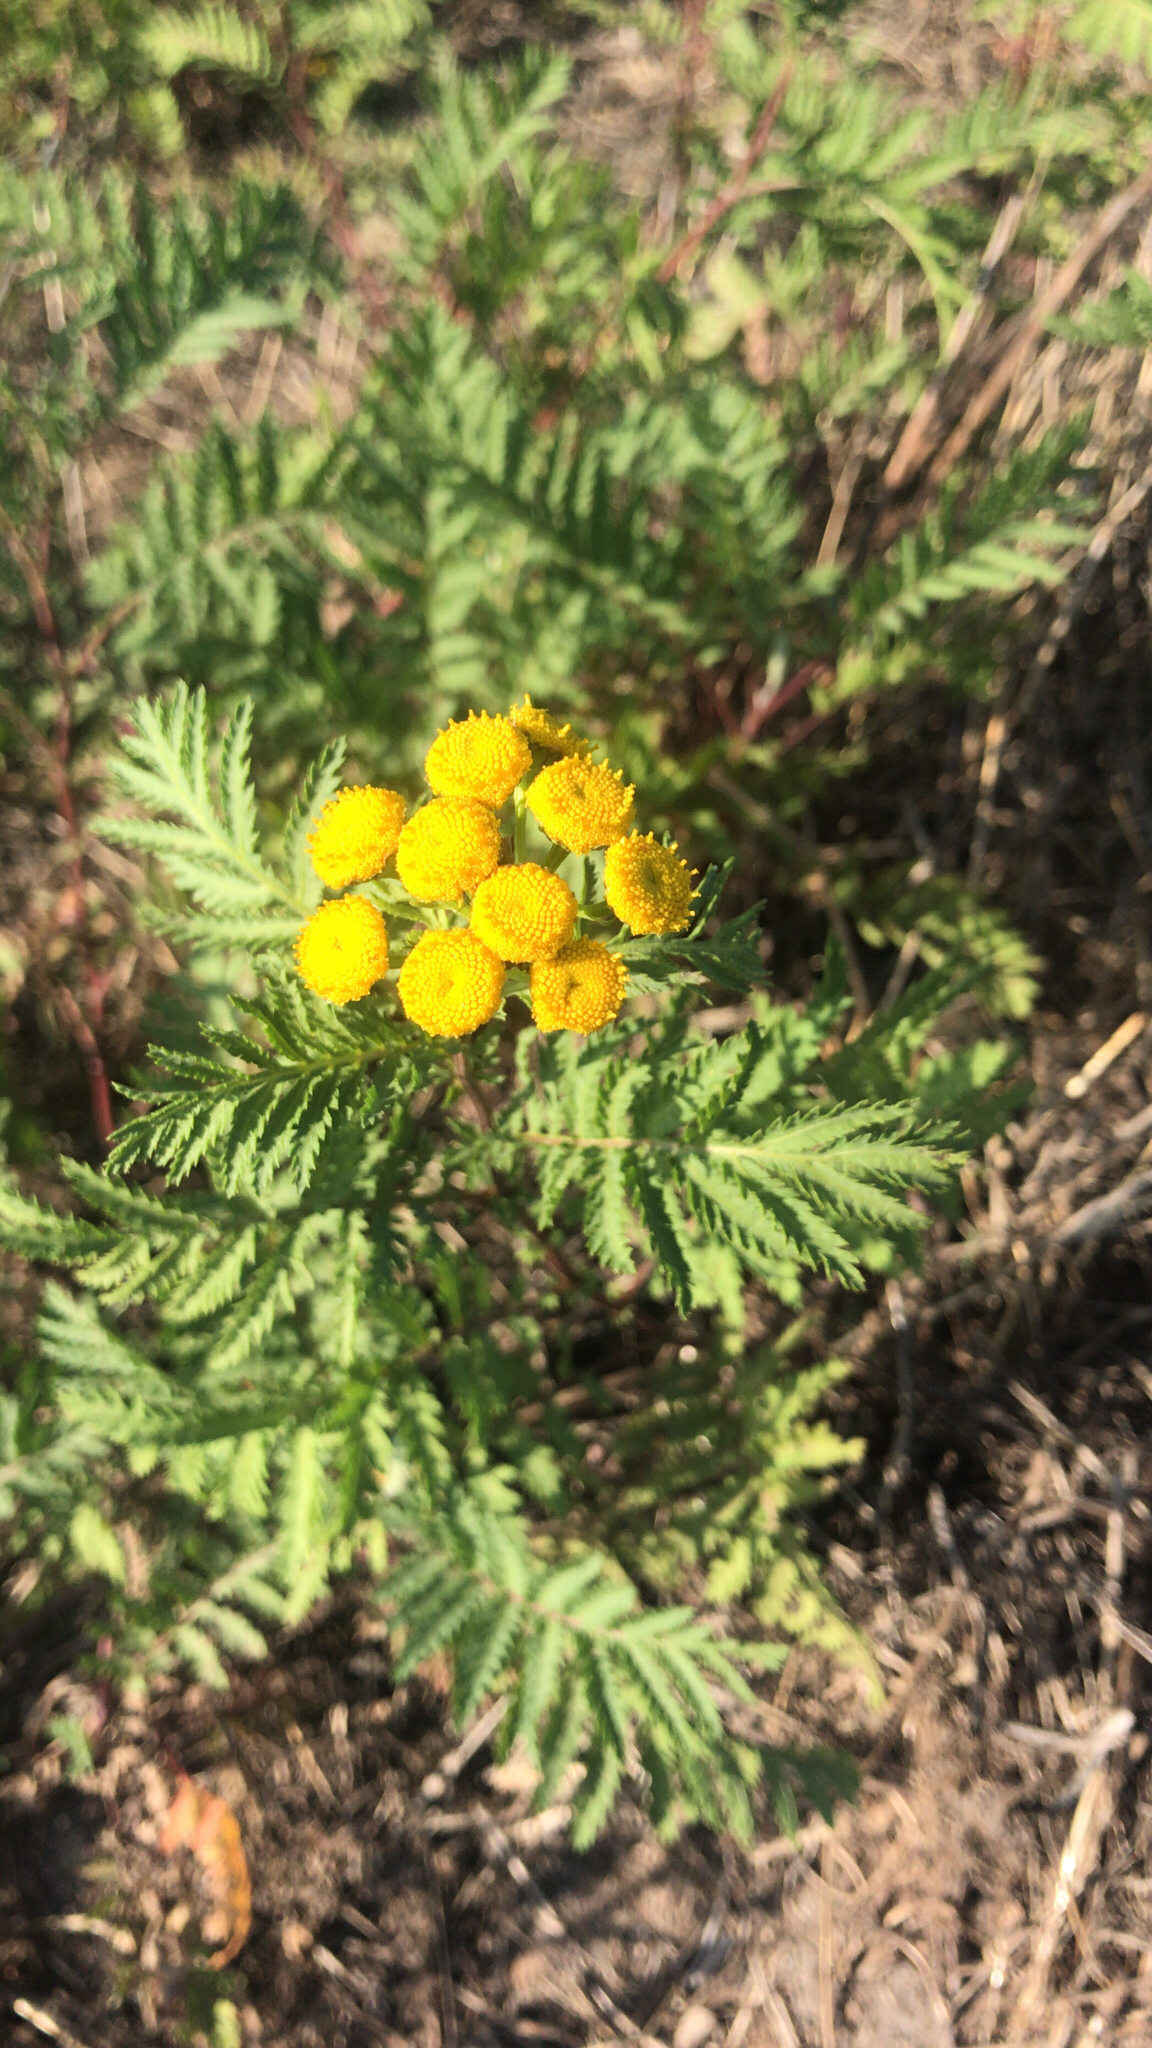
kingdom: Plantae
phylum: Tracheophyta
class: Magnoliopsida
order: Asterales
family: Asteraceae
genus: Tanacetum
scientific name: Tanacetum vulgare
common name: Common tansy
